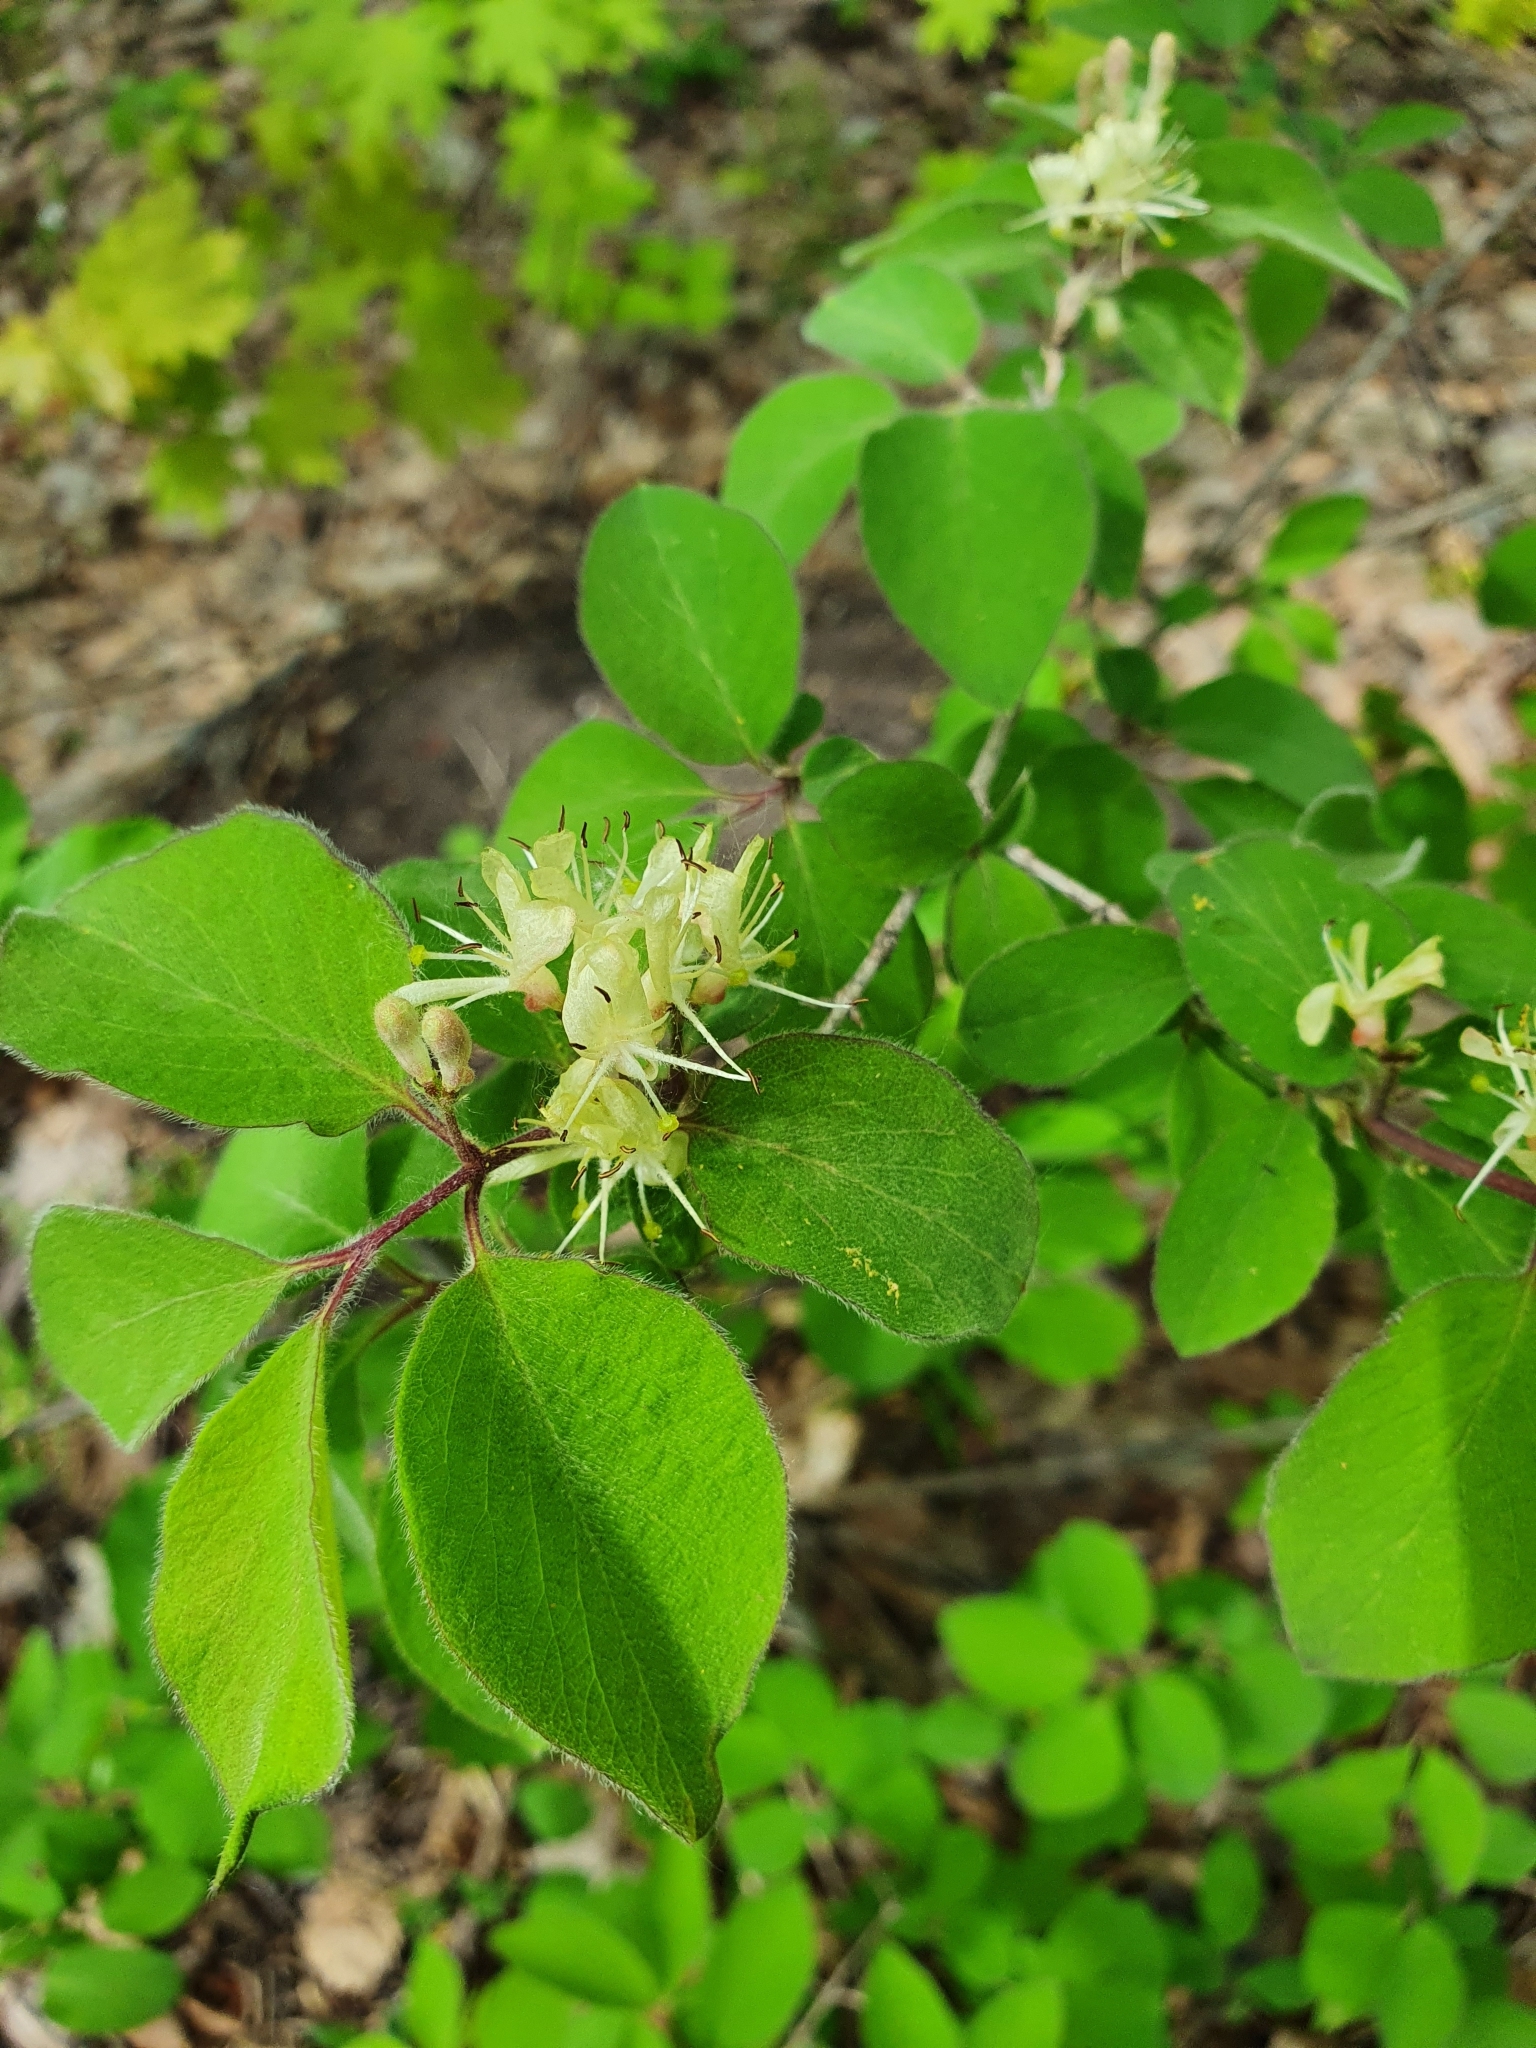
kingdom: Plantae
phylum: Tracheophyta
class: Magnoliopsida
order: Dipsacales
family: Caprifoliaceae
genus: Lonicera
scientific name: Lonicera xylosteum
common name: Fly honeysuckle
